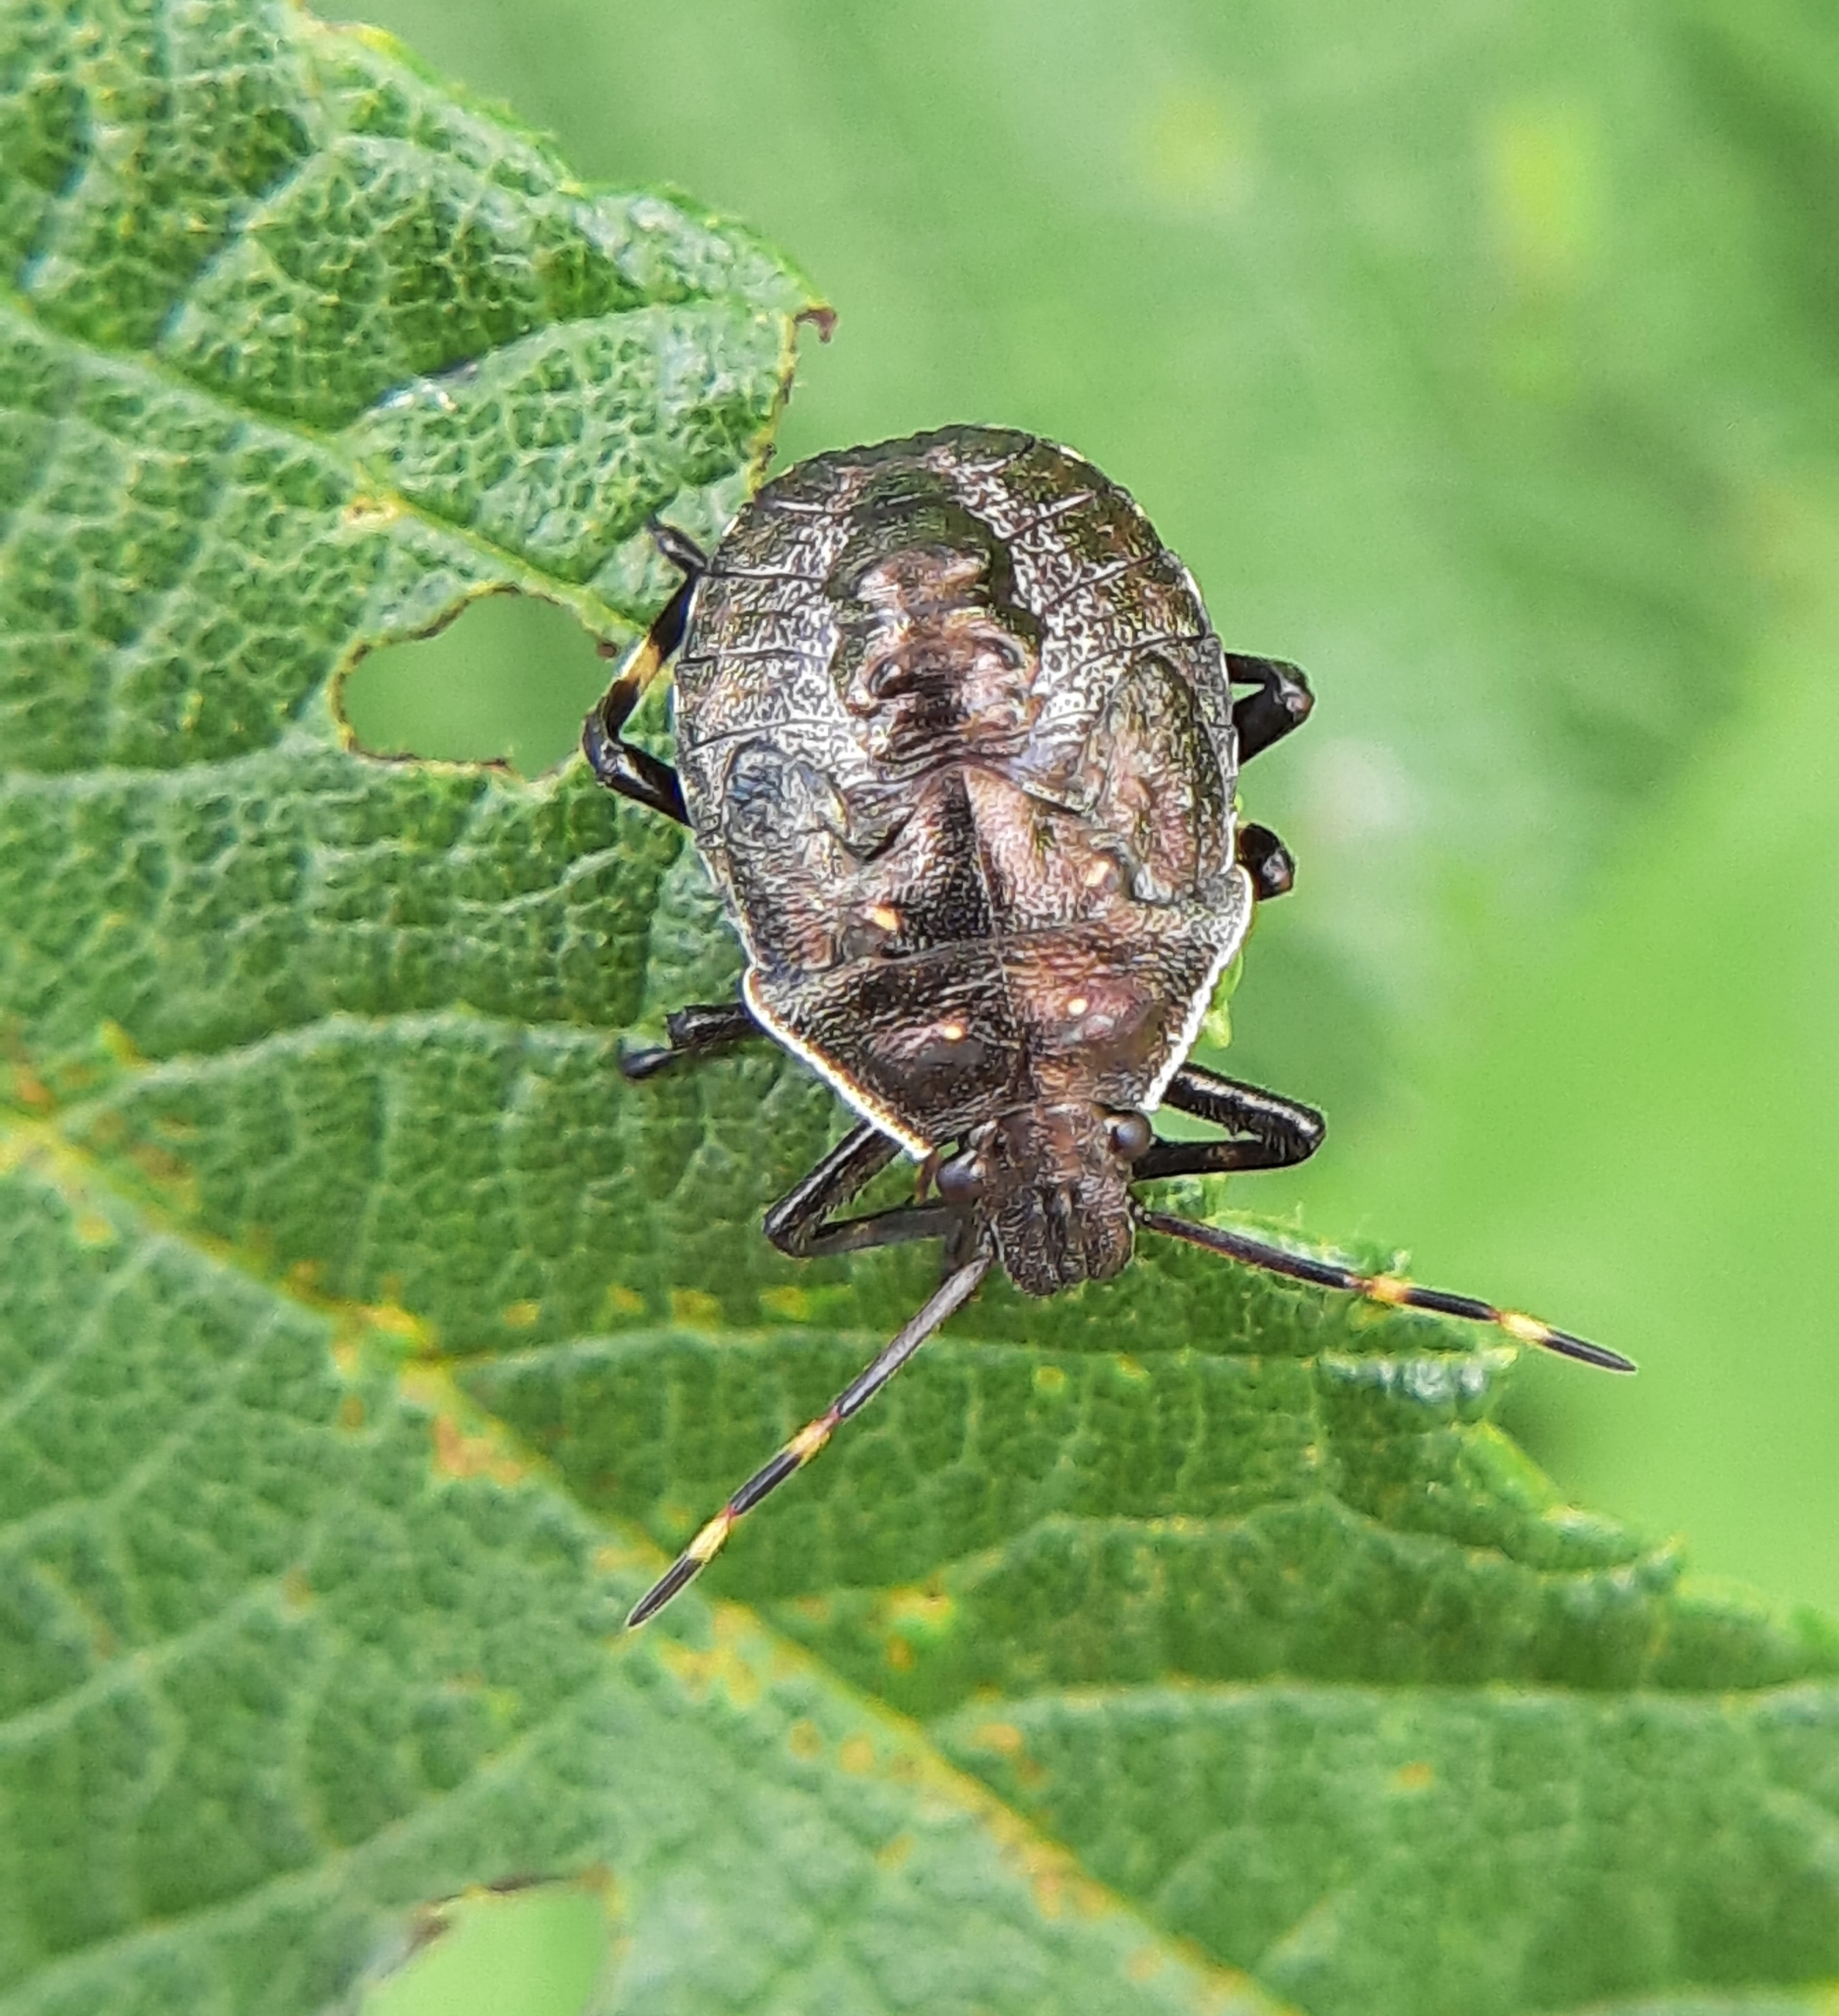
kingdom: Animalia
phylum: Arthropoda
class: Insecta
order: Hemiptera
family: Pentatomidae
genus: Picromerus
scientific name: Picromerus bidens
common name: Spiked shieldbug
